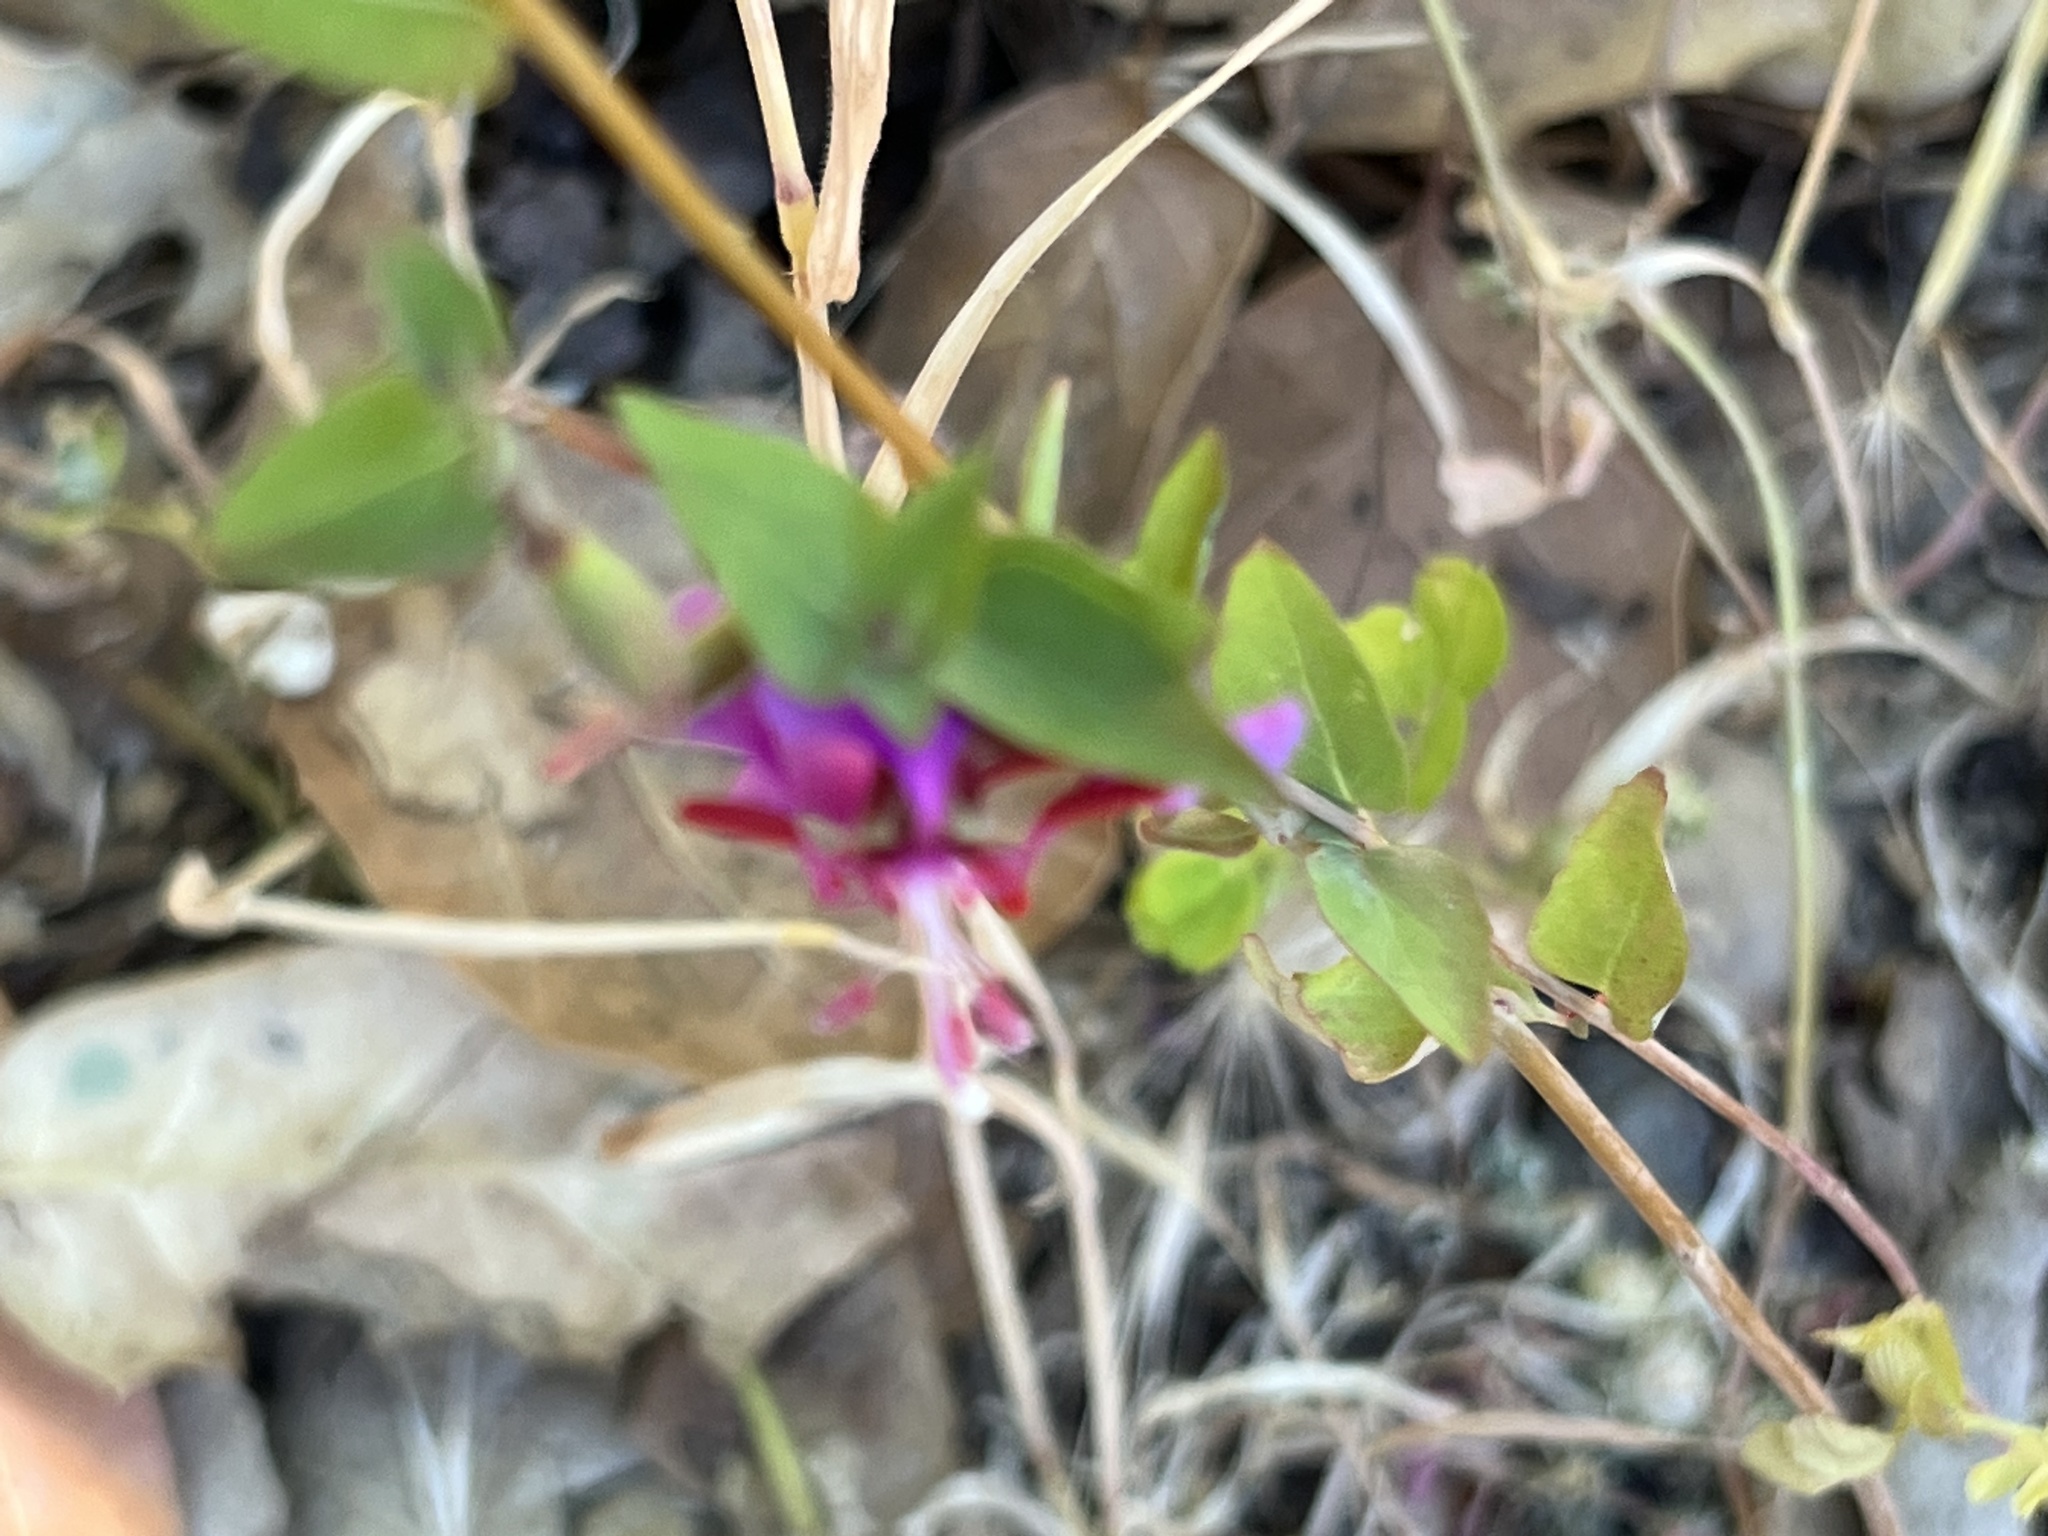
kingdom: Plantae
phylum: Tracheophyta
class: Magnoliopsida
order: Myrtales
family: Onagraceae
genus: Clarkia
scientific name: Clarkia unguiculata
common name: Clarkia
